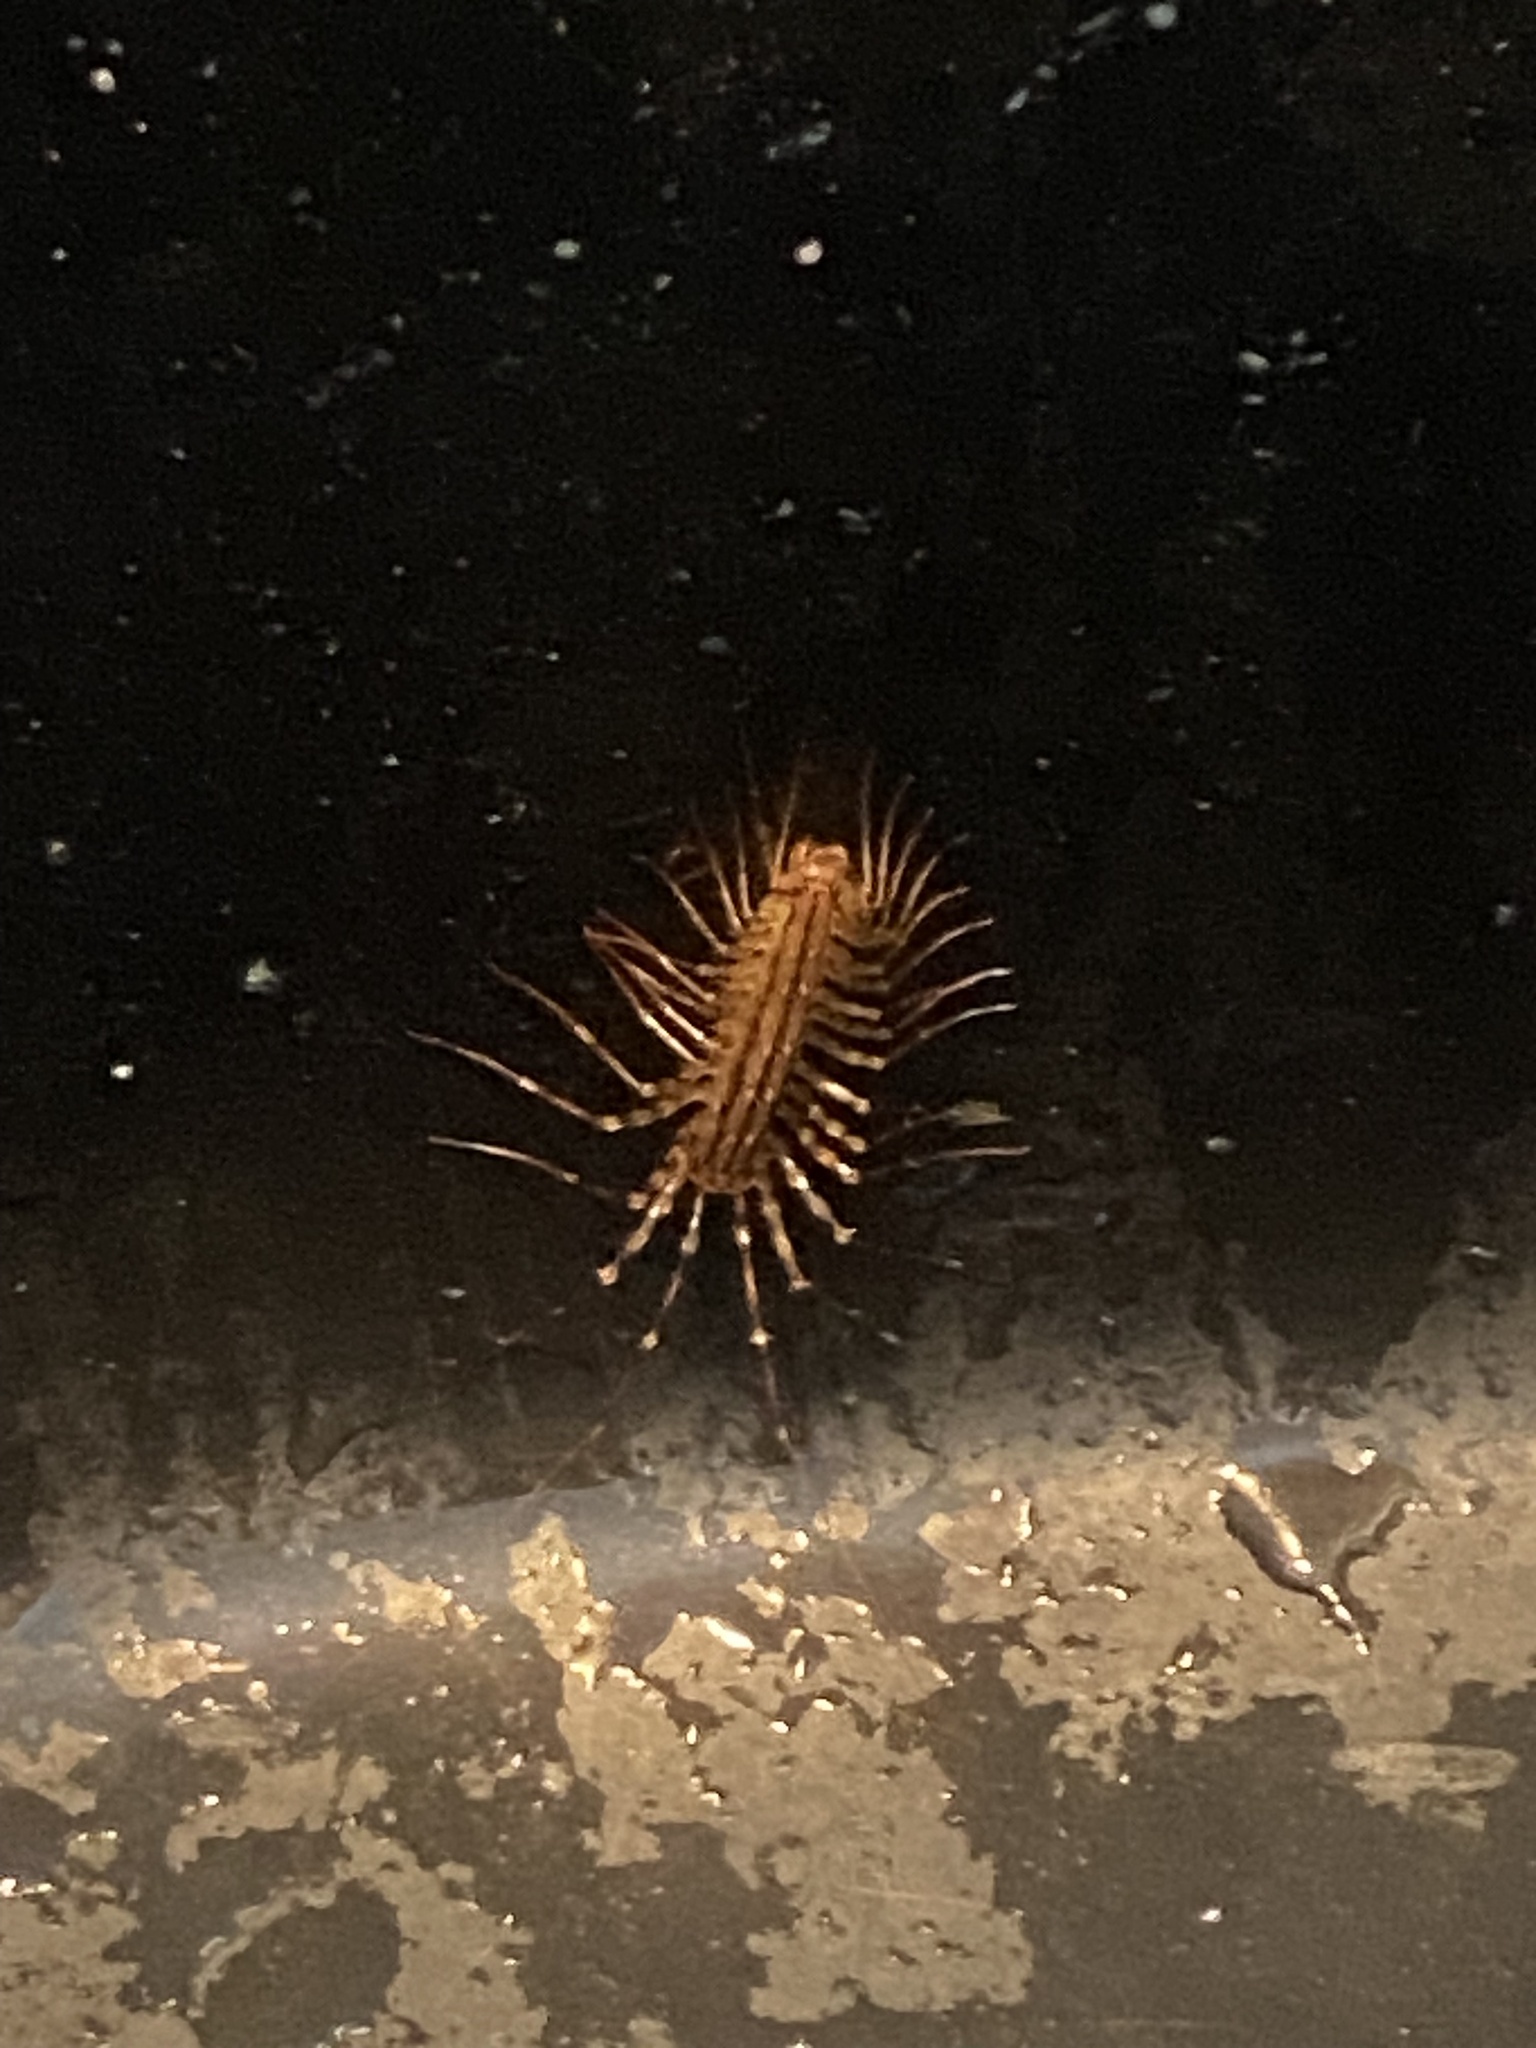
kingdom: Animalia
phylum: Arthropoda
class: Chilopoda
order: Scutigeromorpha
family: Scutigeridae
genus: Scutigera
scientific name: Scutigera coleoptrata
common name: House centipede
